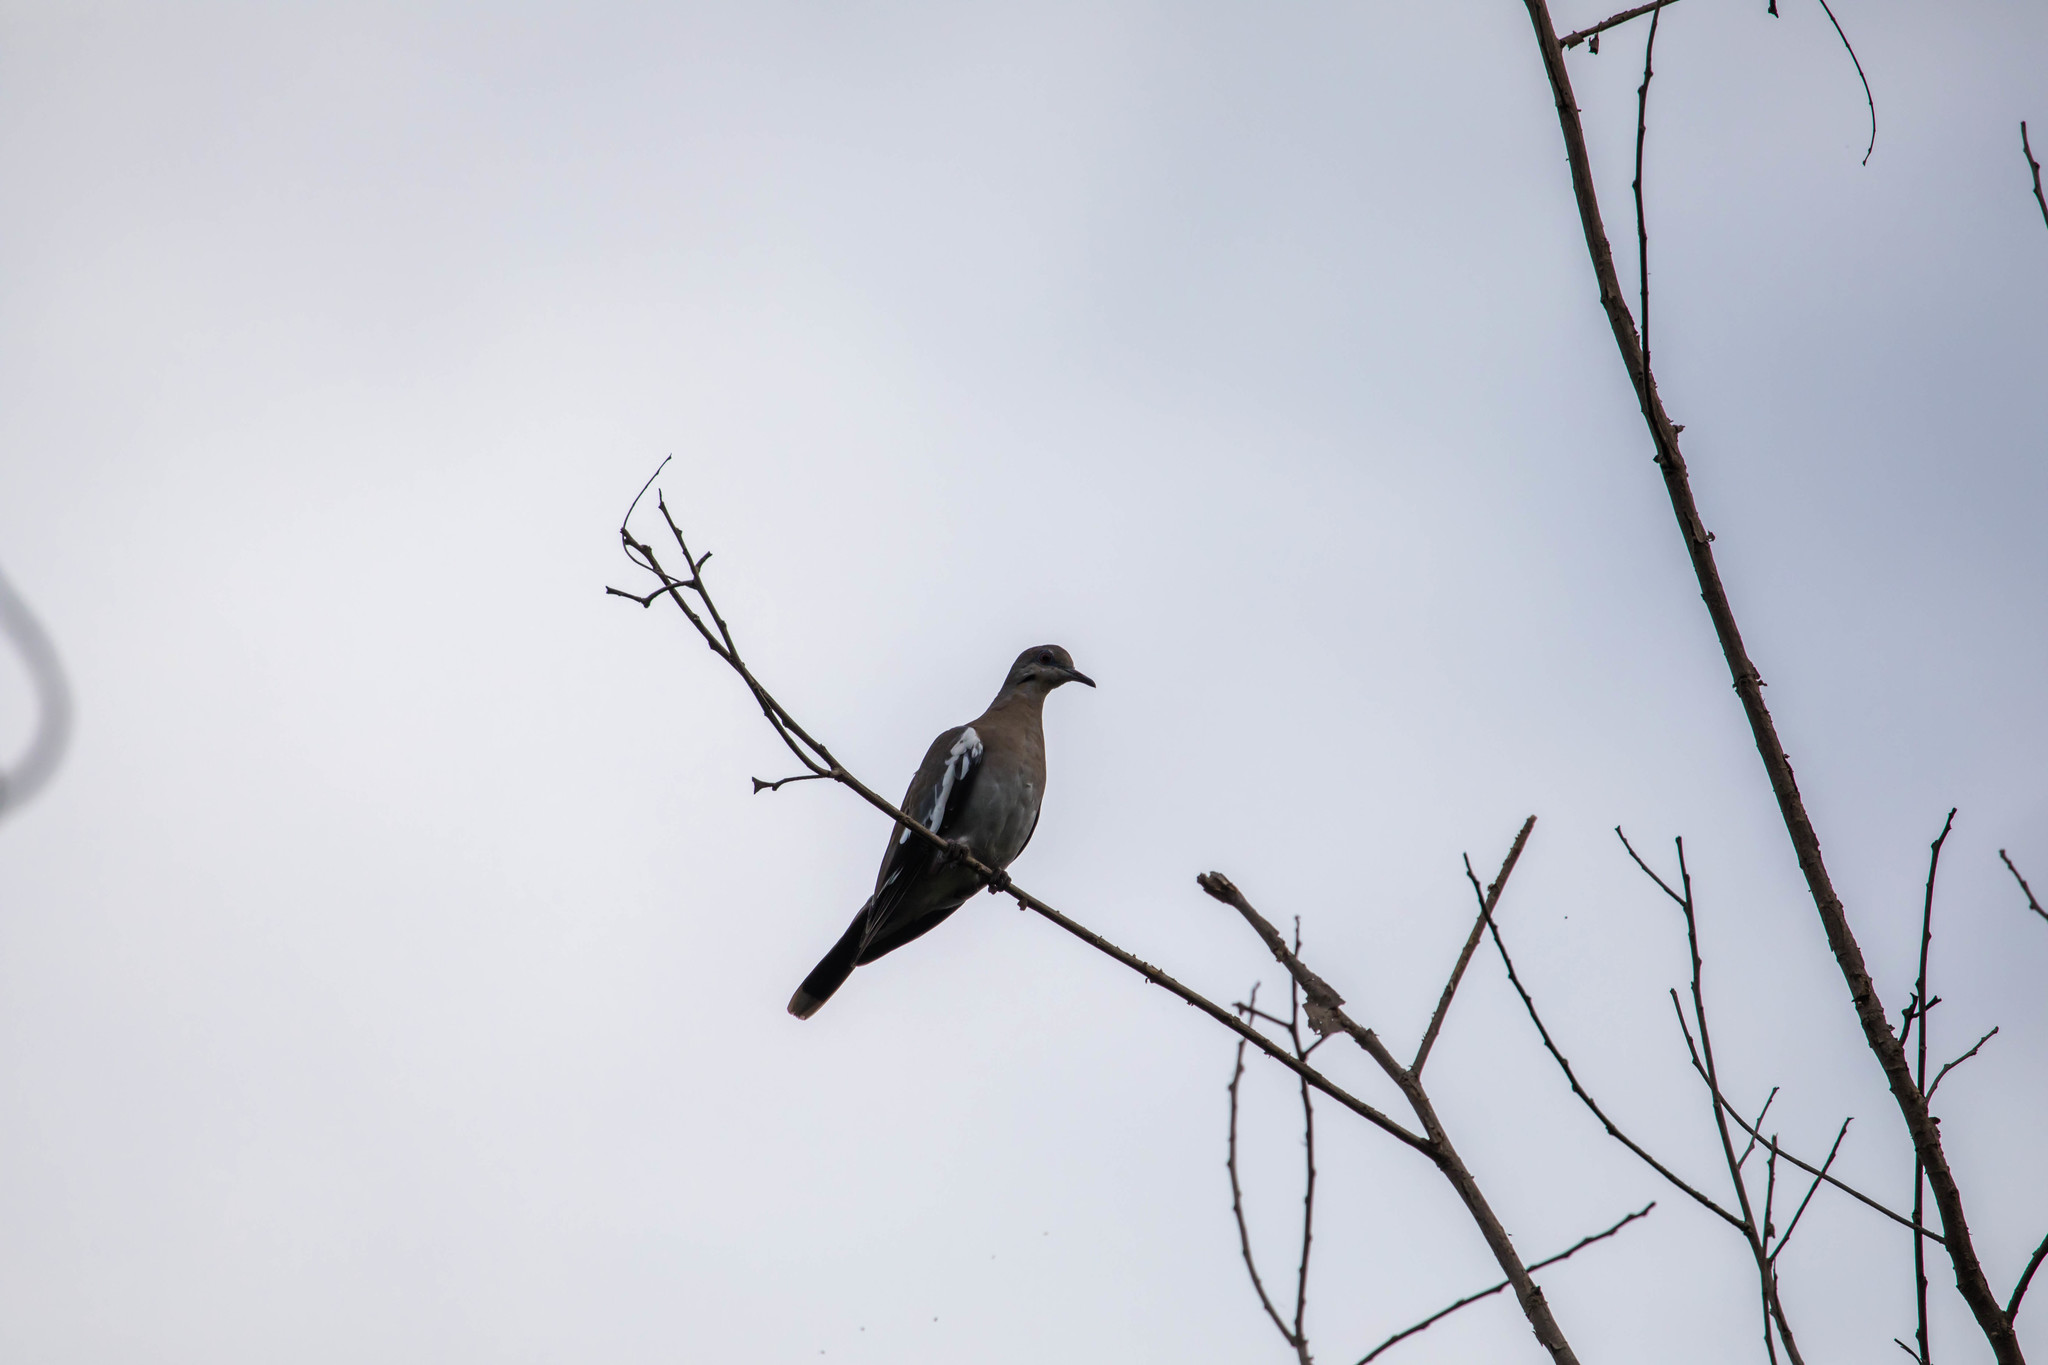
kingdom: Animalia
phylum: Chordata
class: Aves
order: Columbiformes
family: Columbidae
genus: Zenaida
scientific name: Zenaida asiatica
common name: White-winged dove
